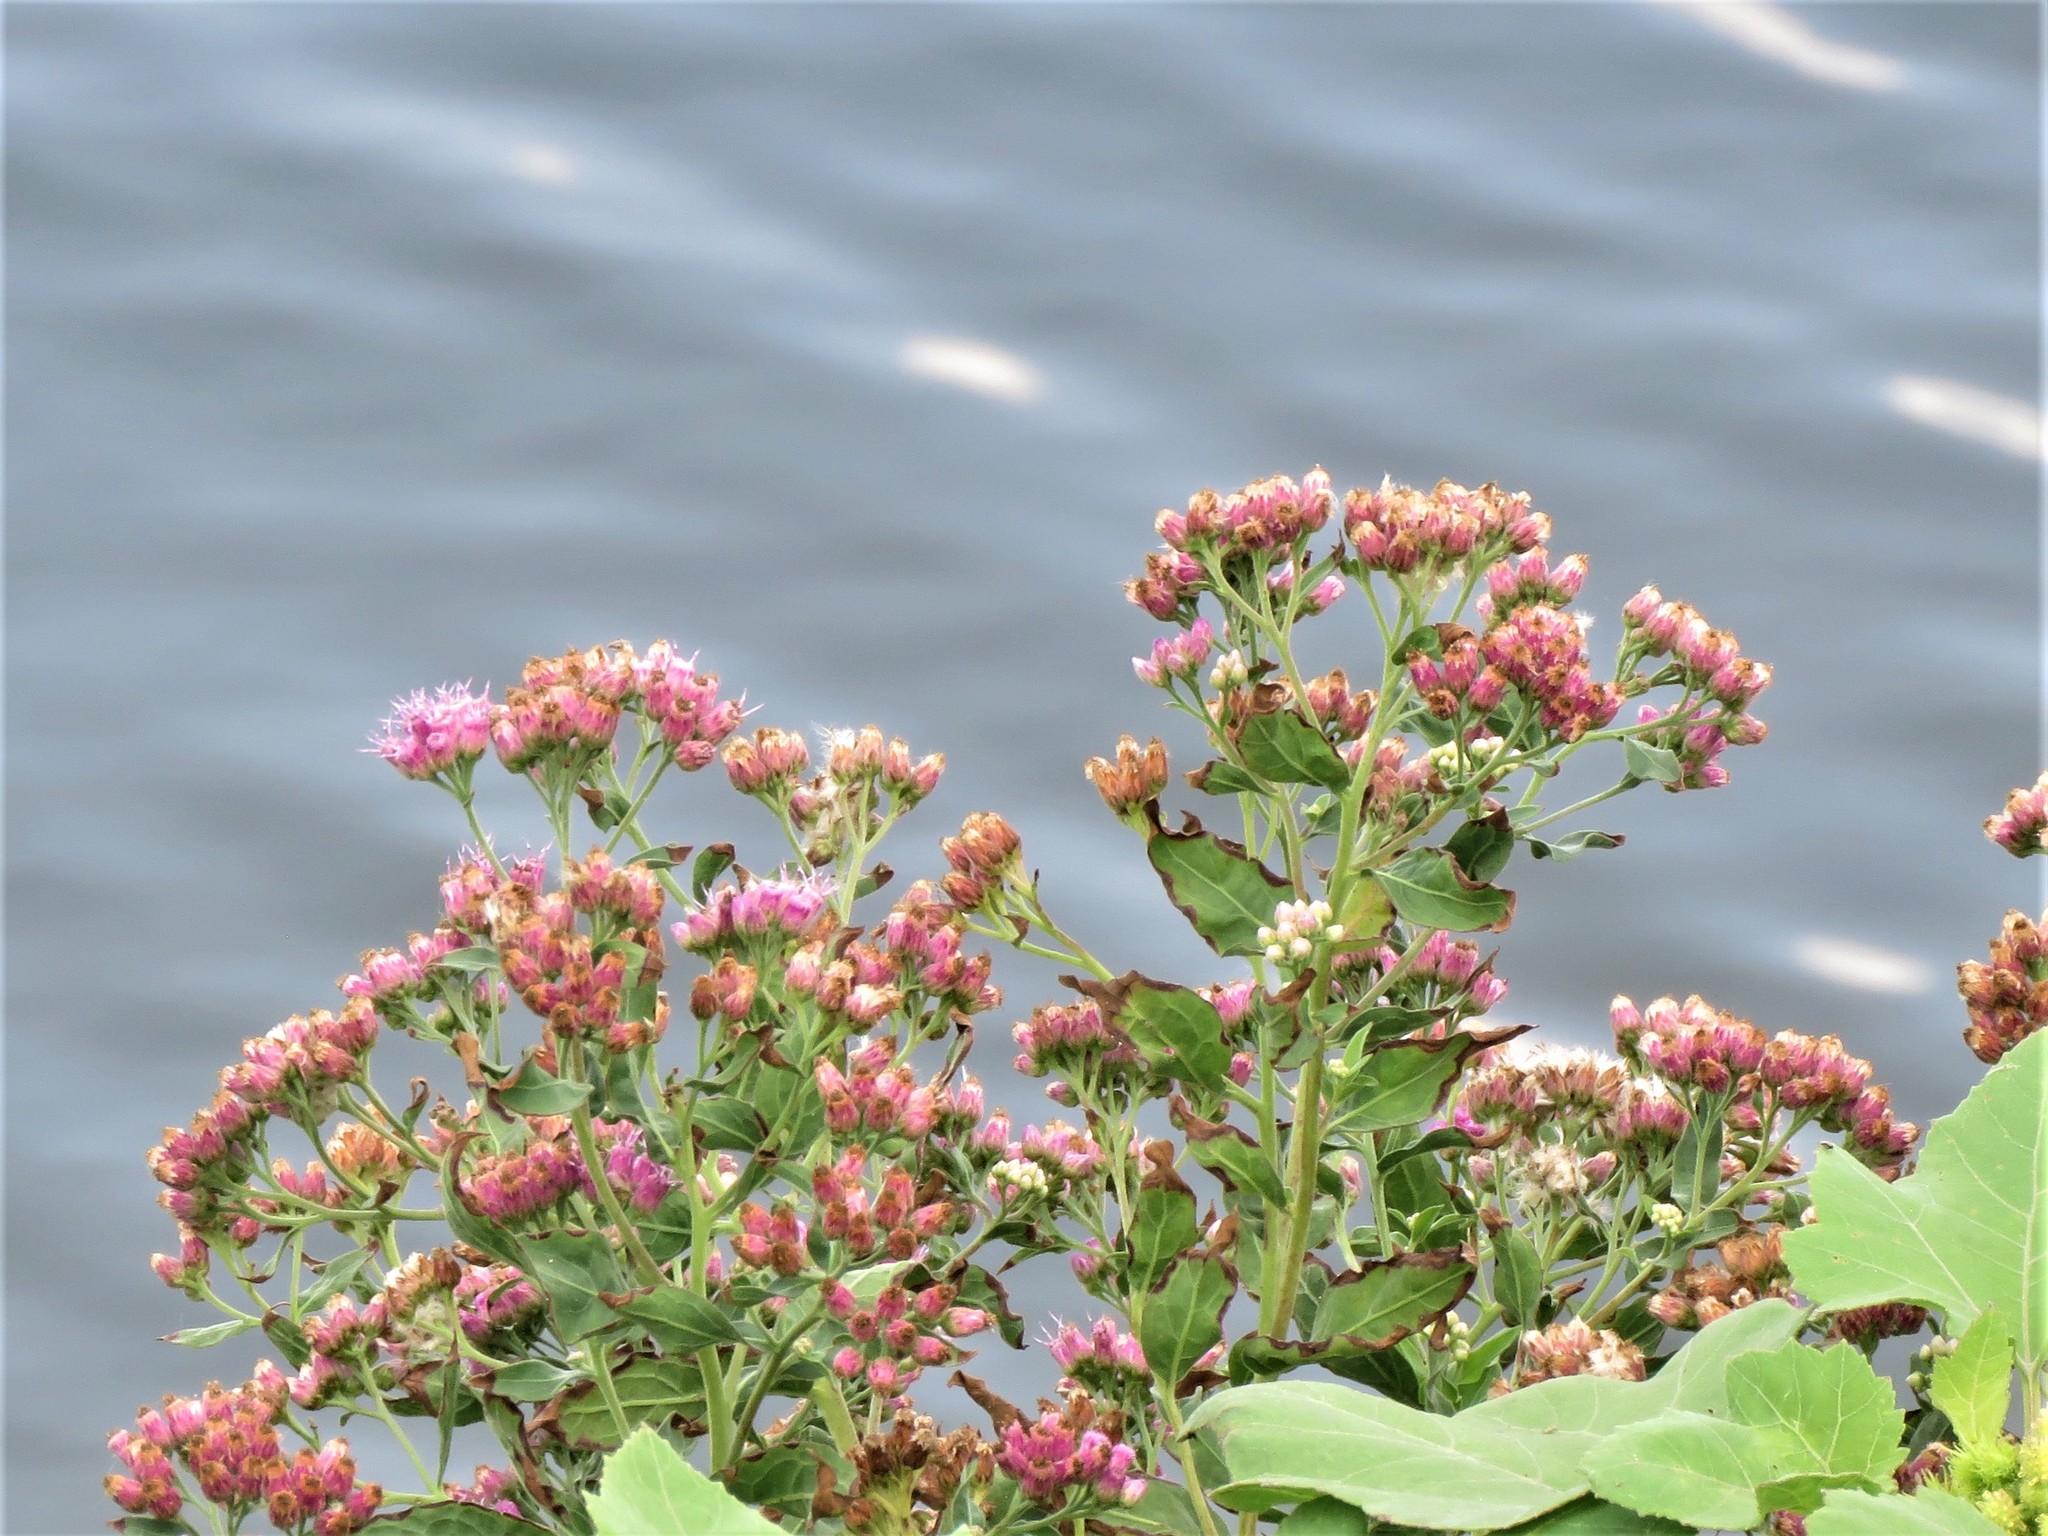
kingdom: Plantae
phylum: Tracheophyta
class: Magnoliopsida
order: Asterales
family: Asteraceae
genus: Pluchea
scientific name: Pluchea odorata
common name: Saltmarsh fleabane
